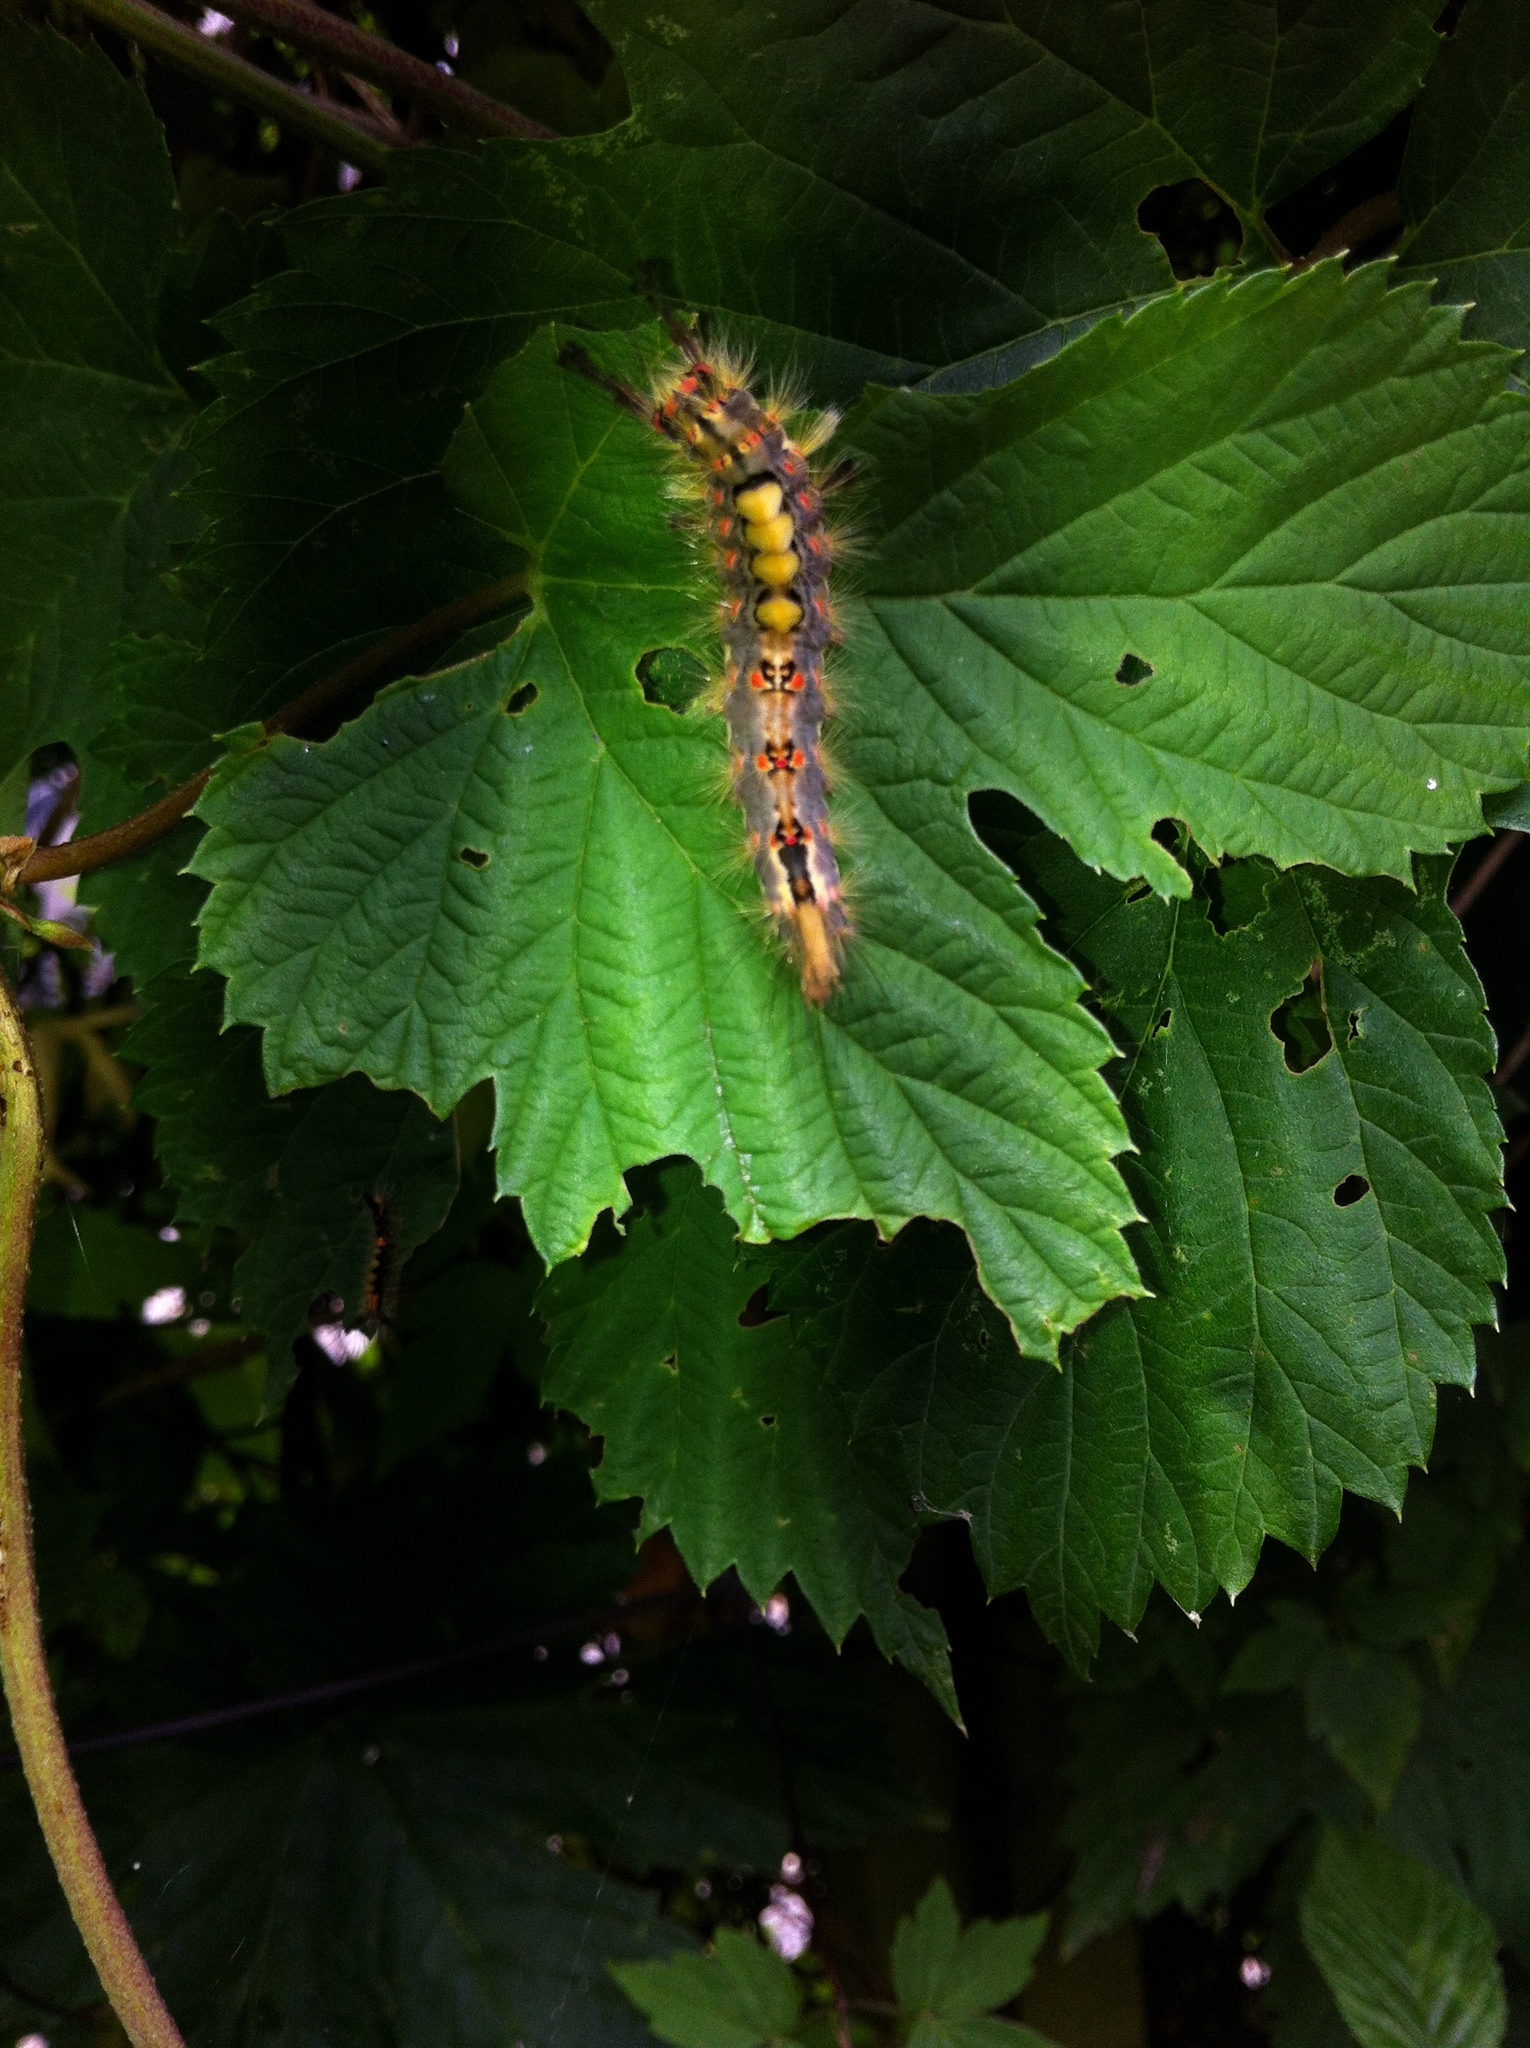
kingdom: Animalia
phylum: Arthropoda
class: Insecta
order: Lepidoptera
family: Erebidae
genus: Orgyia
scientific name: Orgyia antiqua
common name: Vapourer
